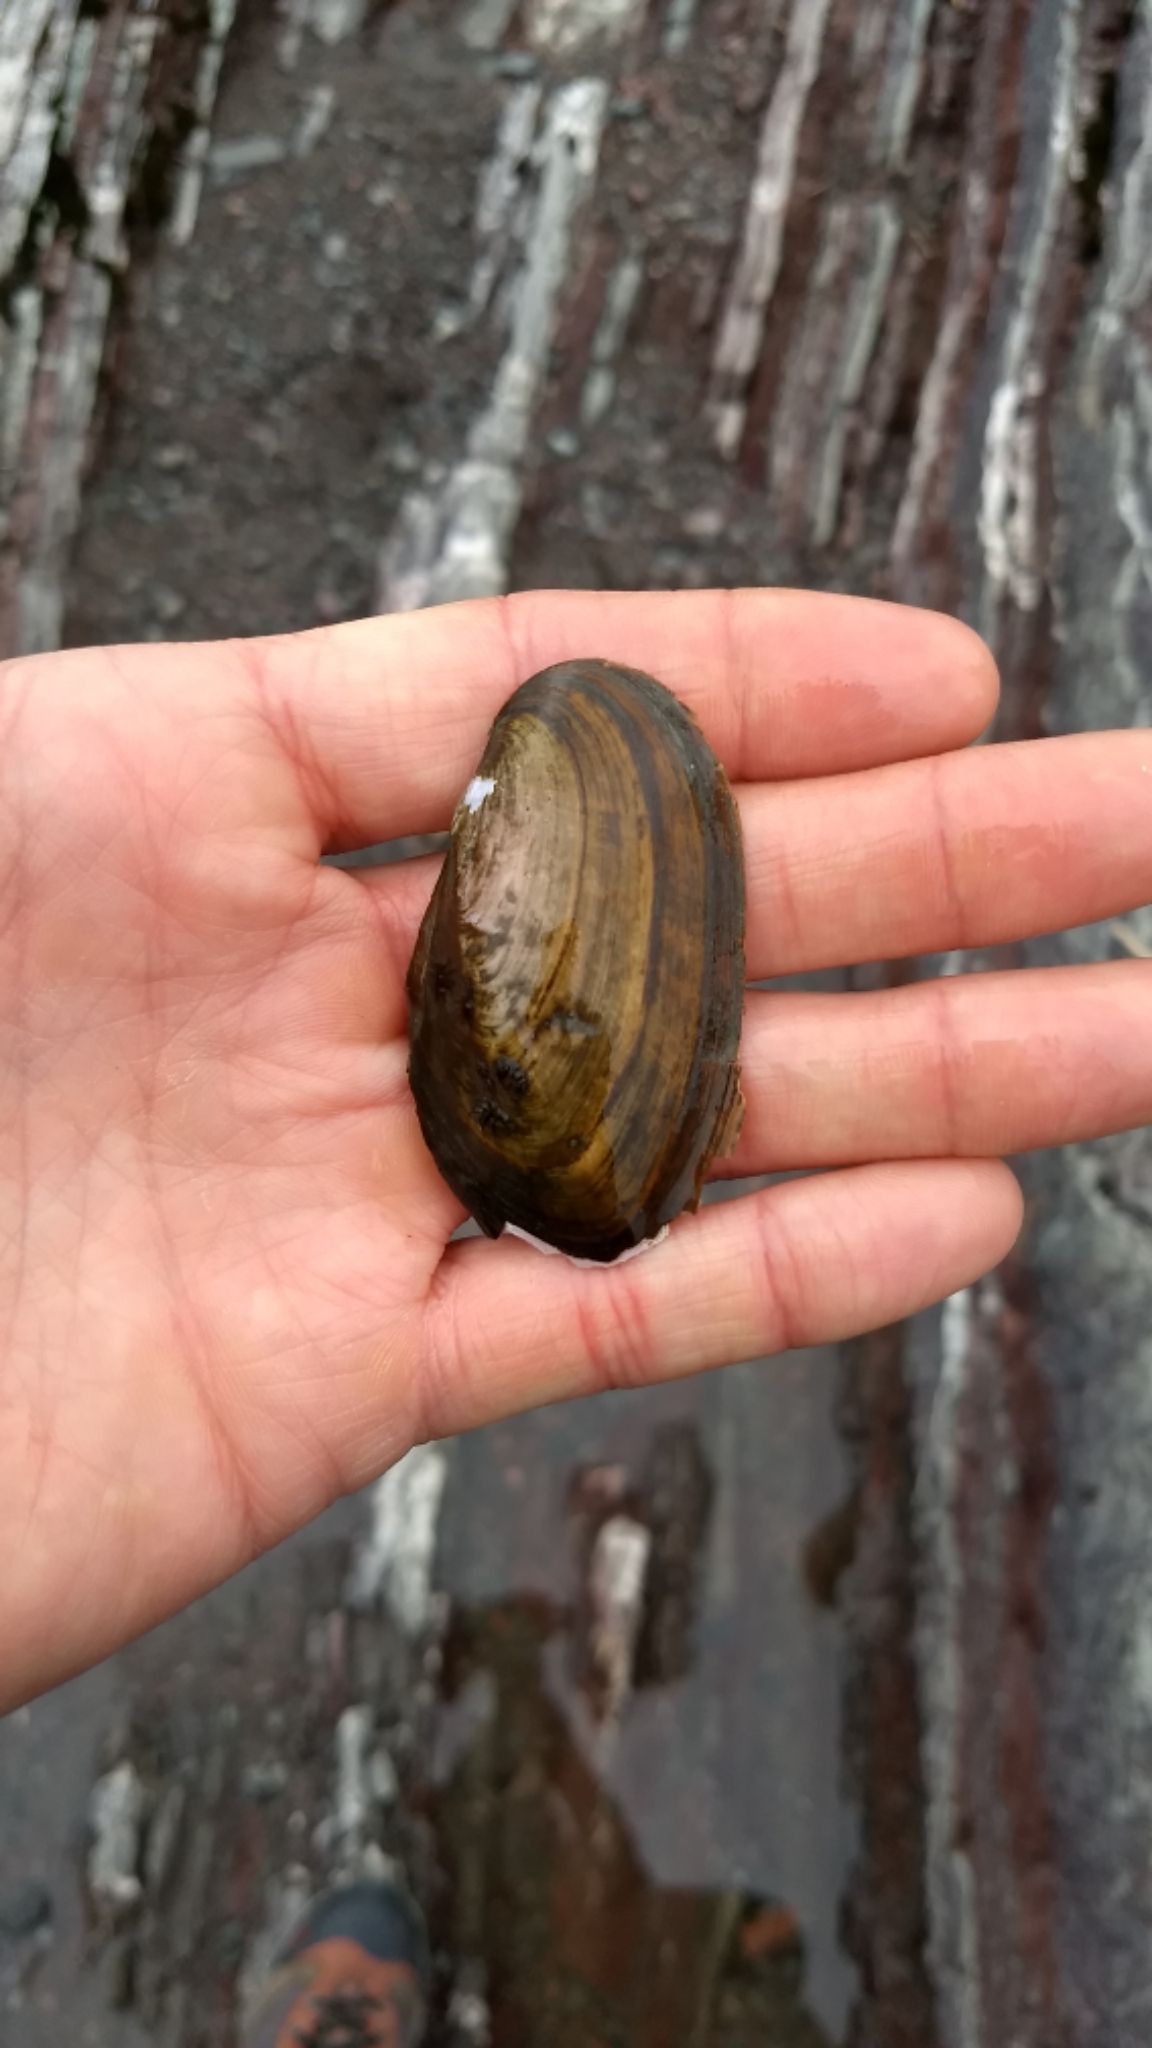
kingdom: Animalia
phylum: Mollusca
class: Bivalvia
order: Unionida
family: Unionidae
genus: Elliptio
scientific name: Elliptio complanata
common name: Eastern elliptio
